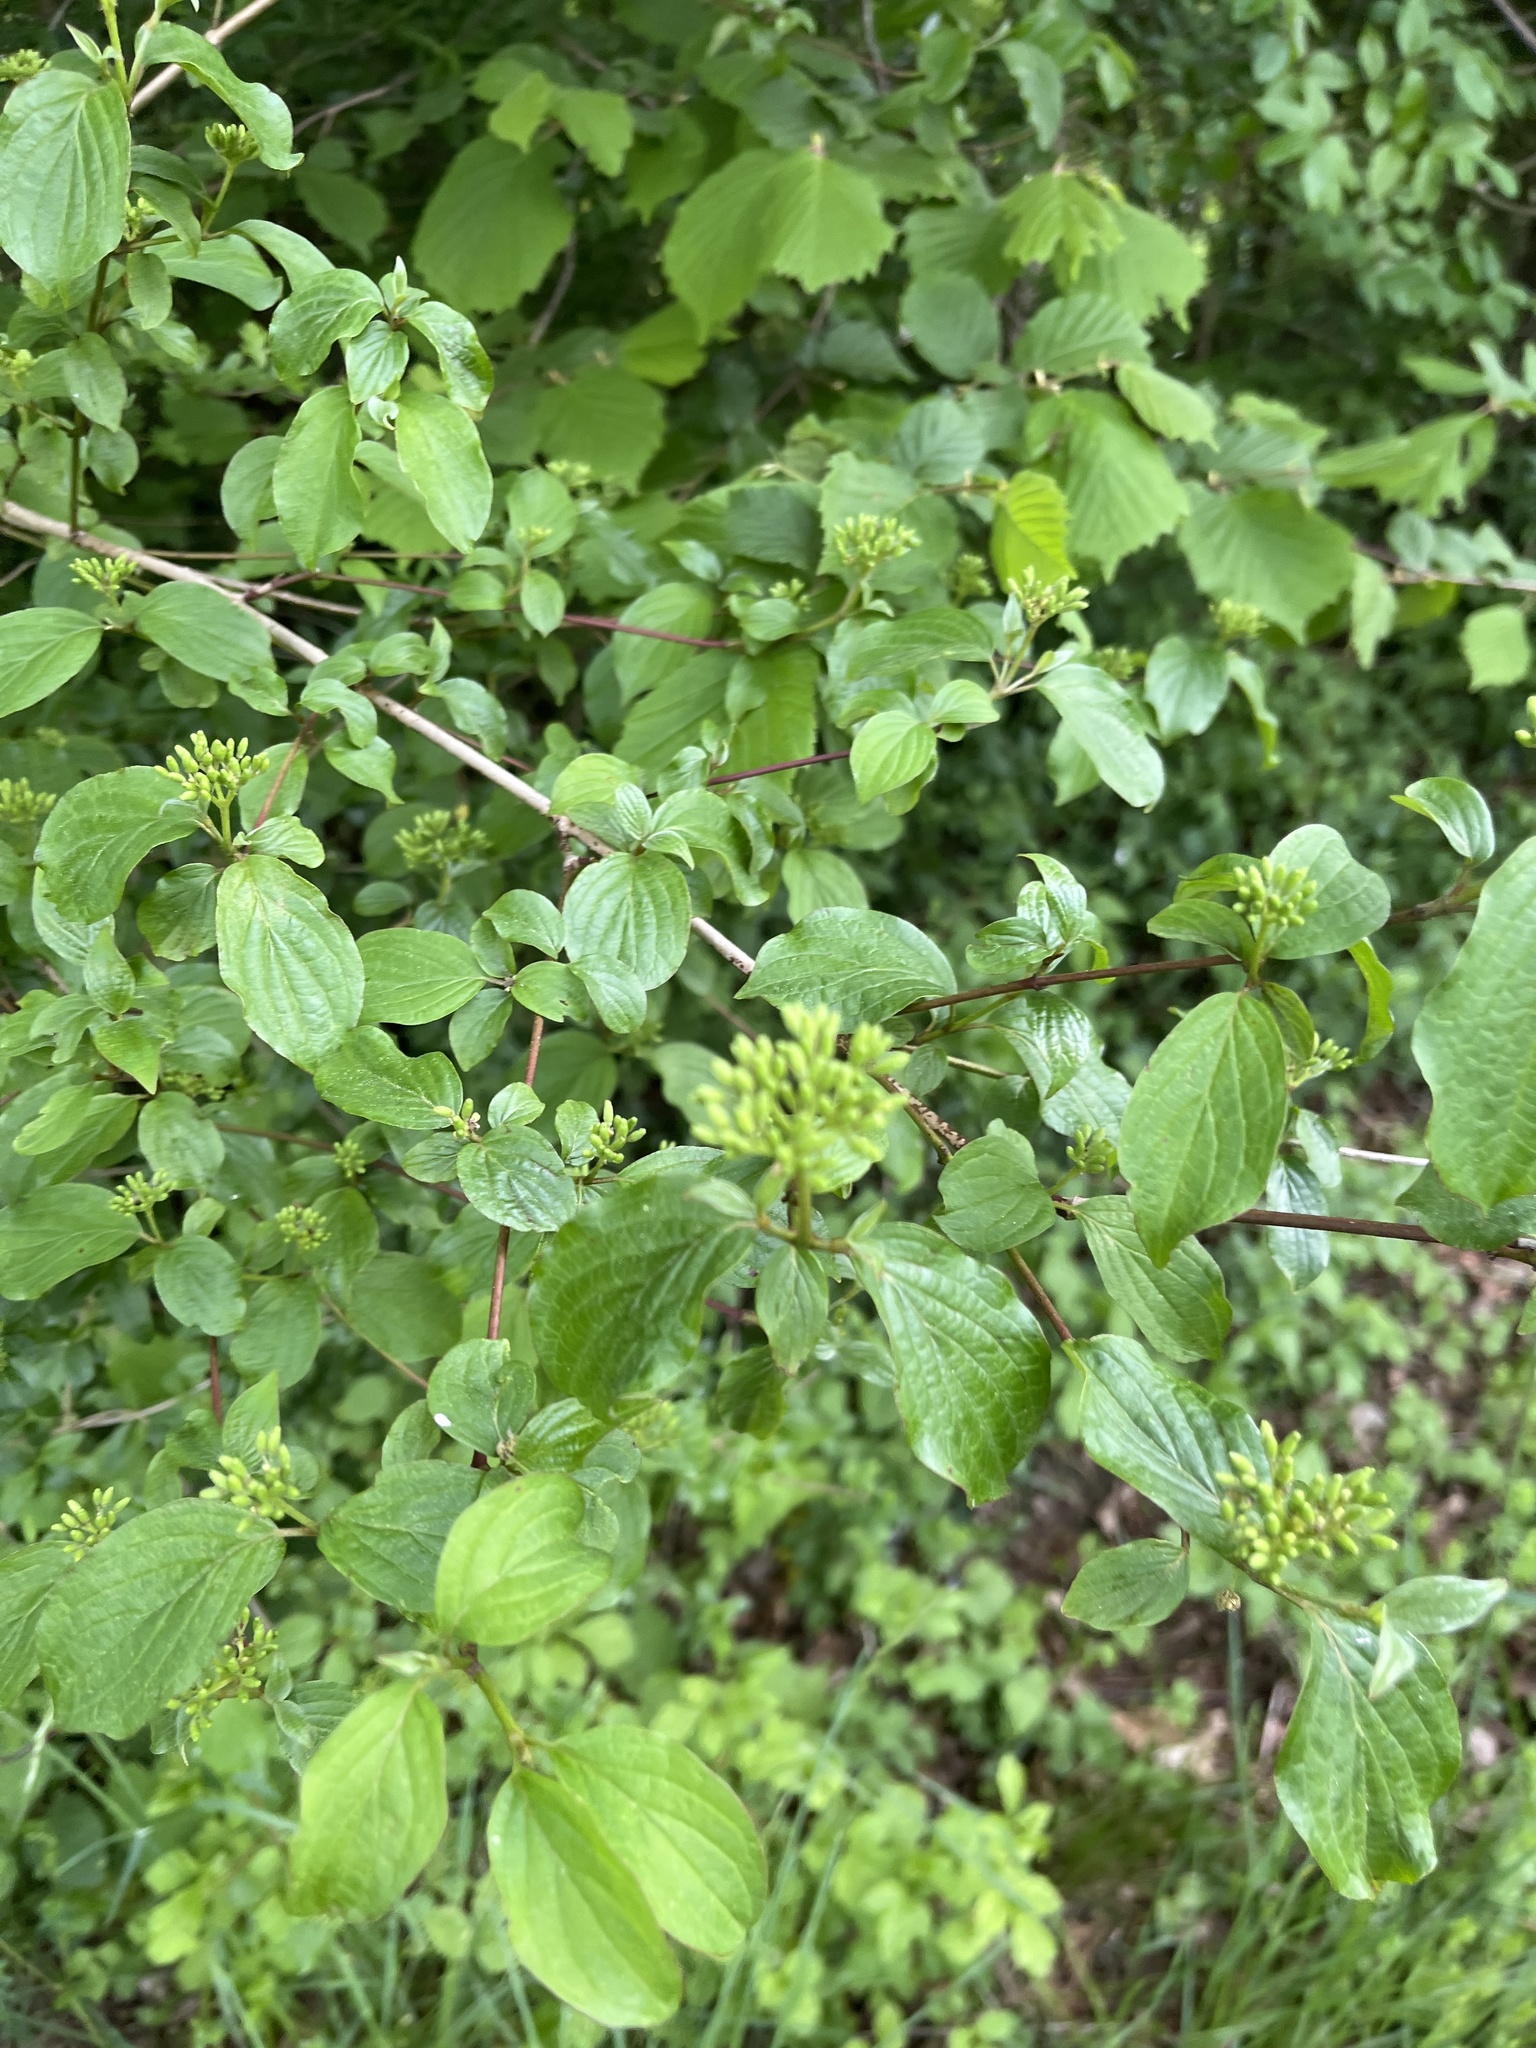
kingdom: Plantae
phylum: Tracheophyta
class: Magnoliopsida
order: Cornales
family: Cornaceae
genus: Cornus
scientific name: Cornus sanguinea
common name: Dogwood
